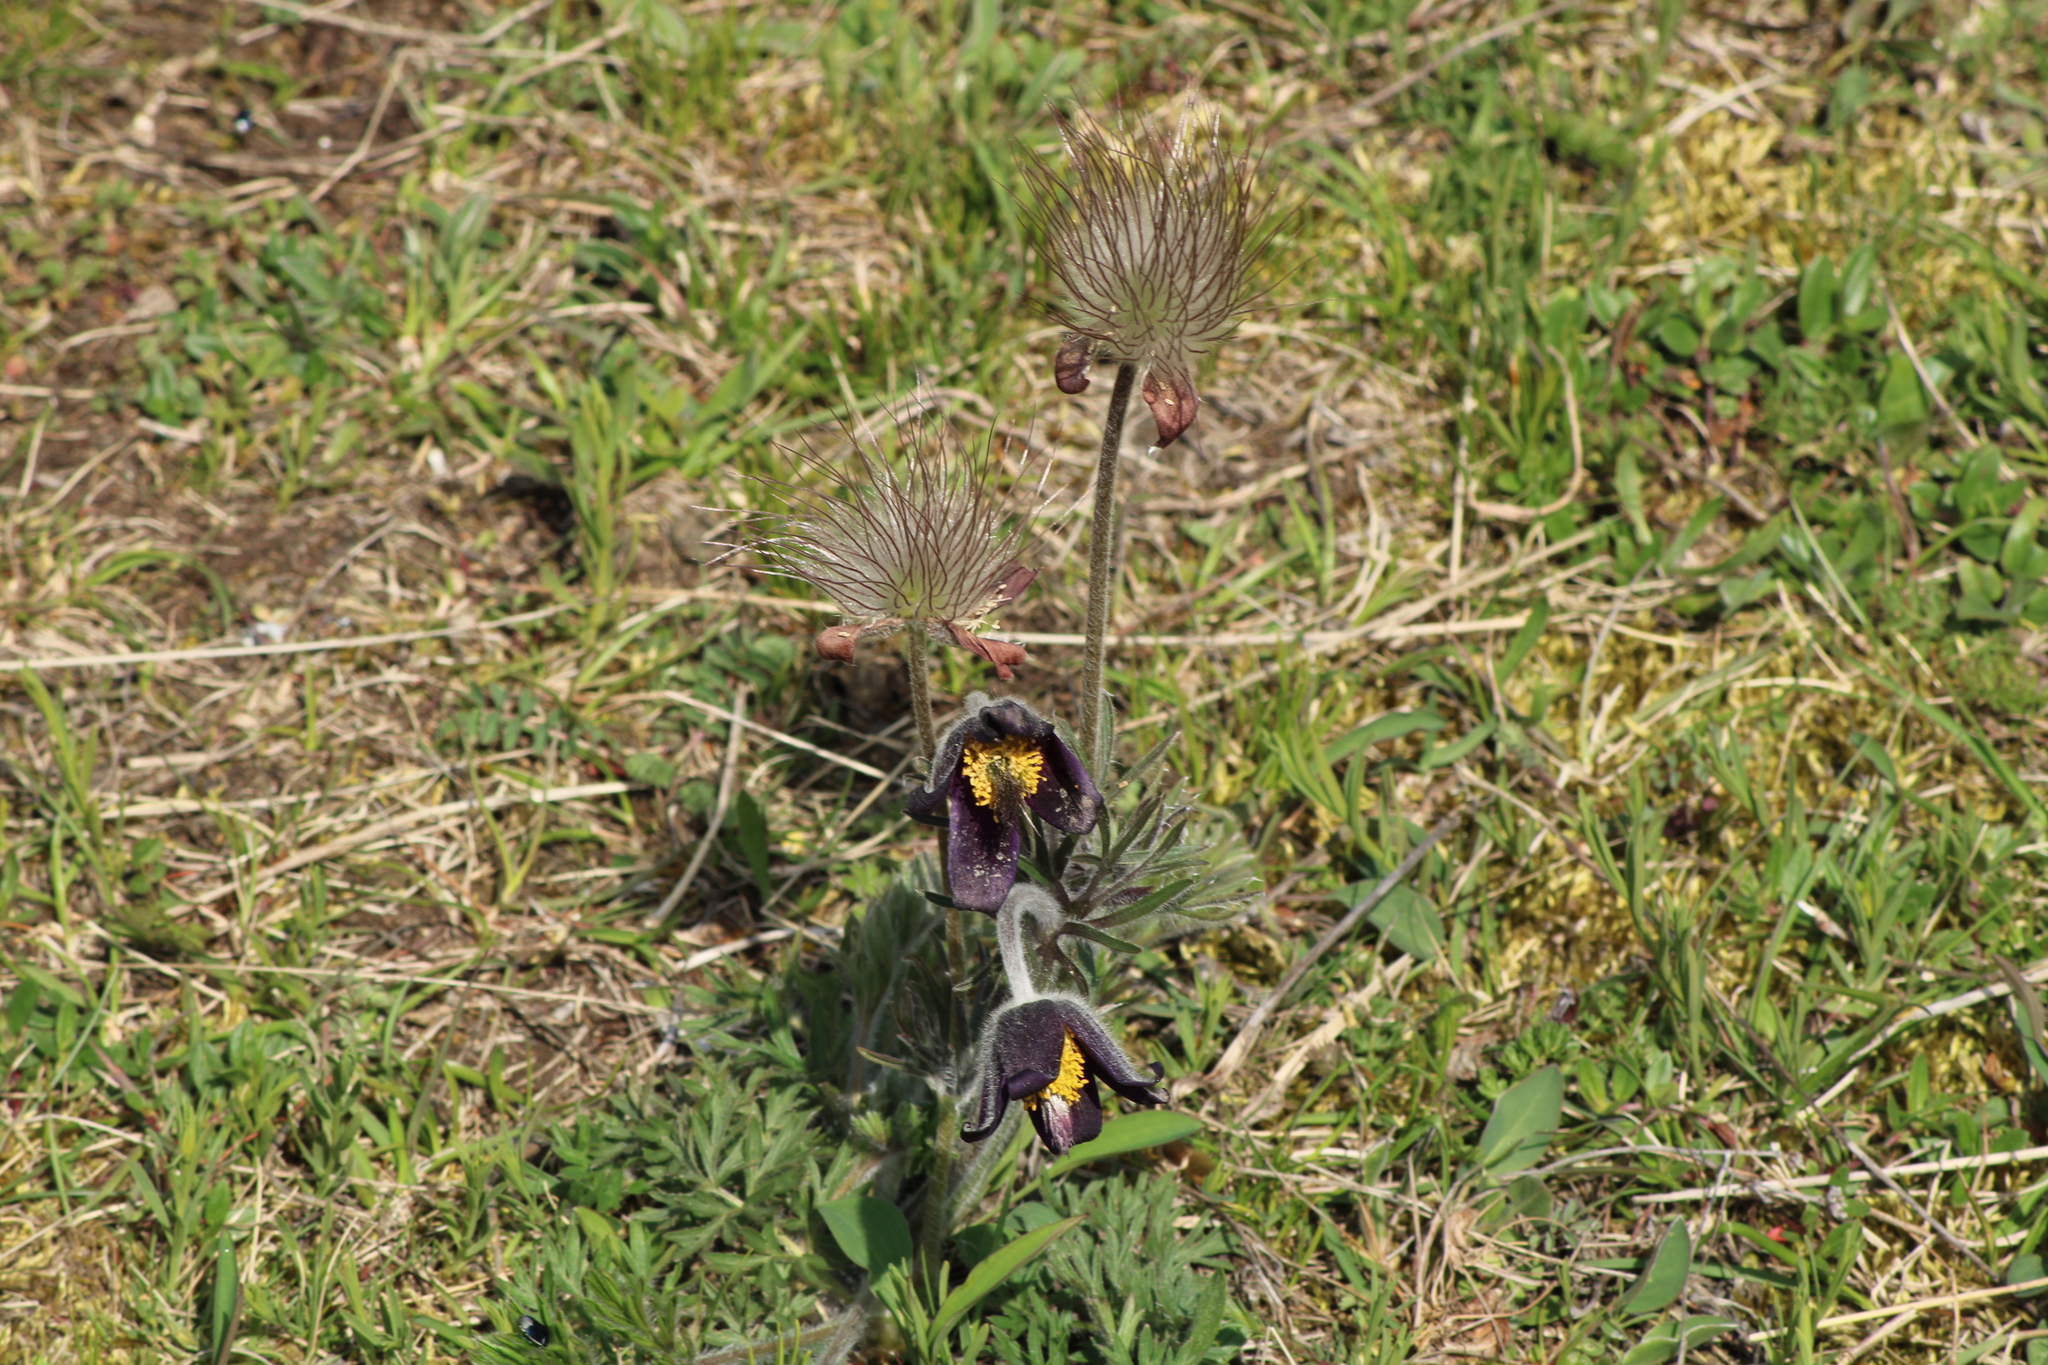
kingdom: Plantae
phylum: Tracheophyta
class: Magnoliopsida
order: Ranunculales
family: Ranunculaceae
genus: Pulsatilla
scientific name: Pulsatilla pratensis
